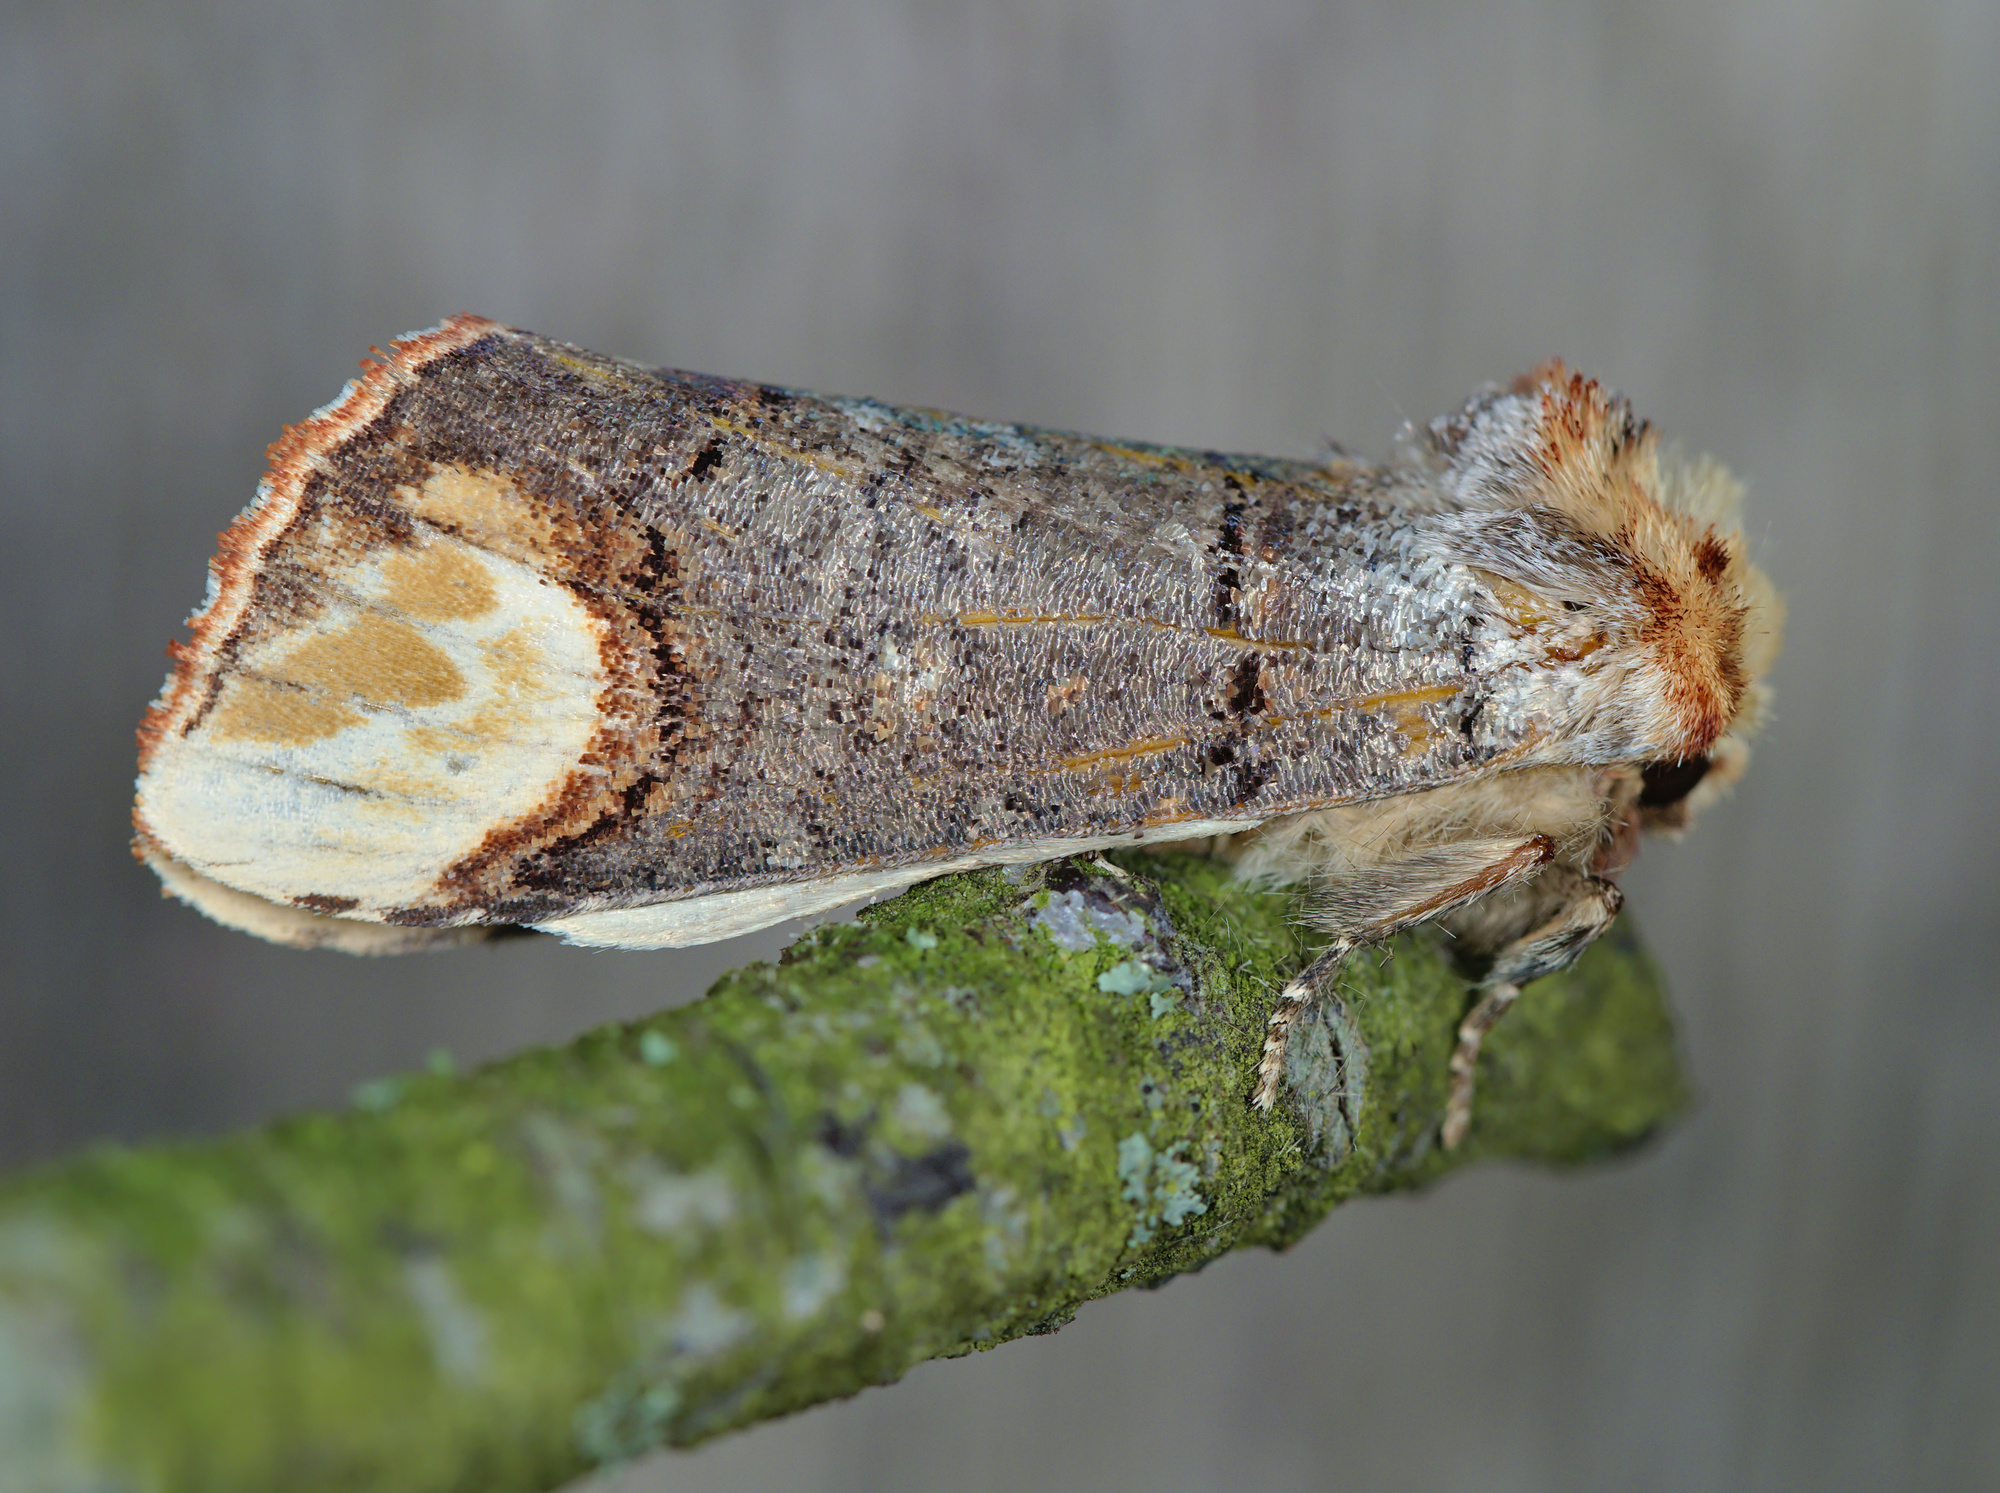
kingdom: Animalia
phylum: Arthropoda
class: Insecta
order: Lepidoptera
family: Notodontidae
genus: Phalera
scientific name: Phalera bucephala
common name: Buff-tip
